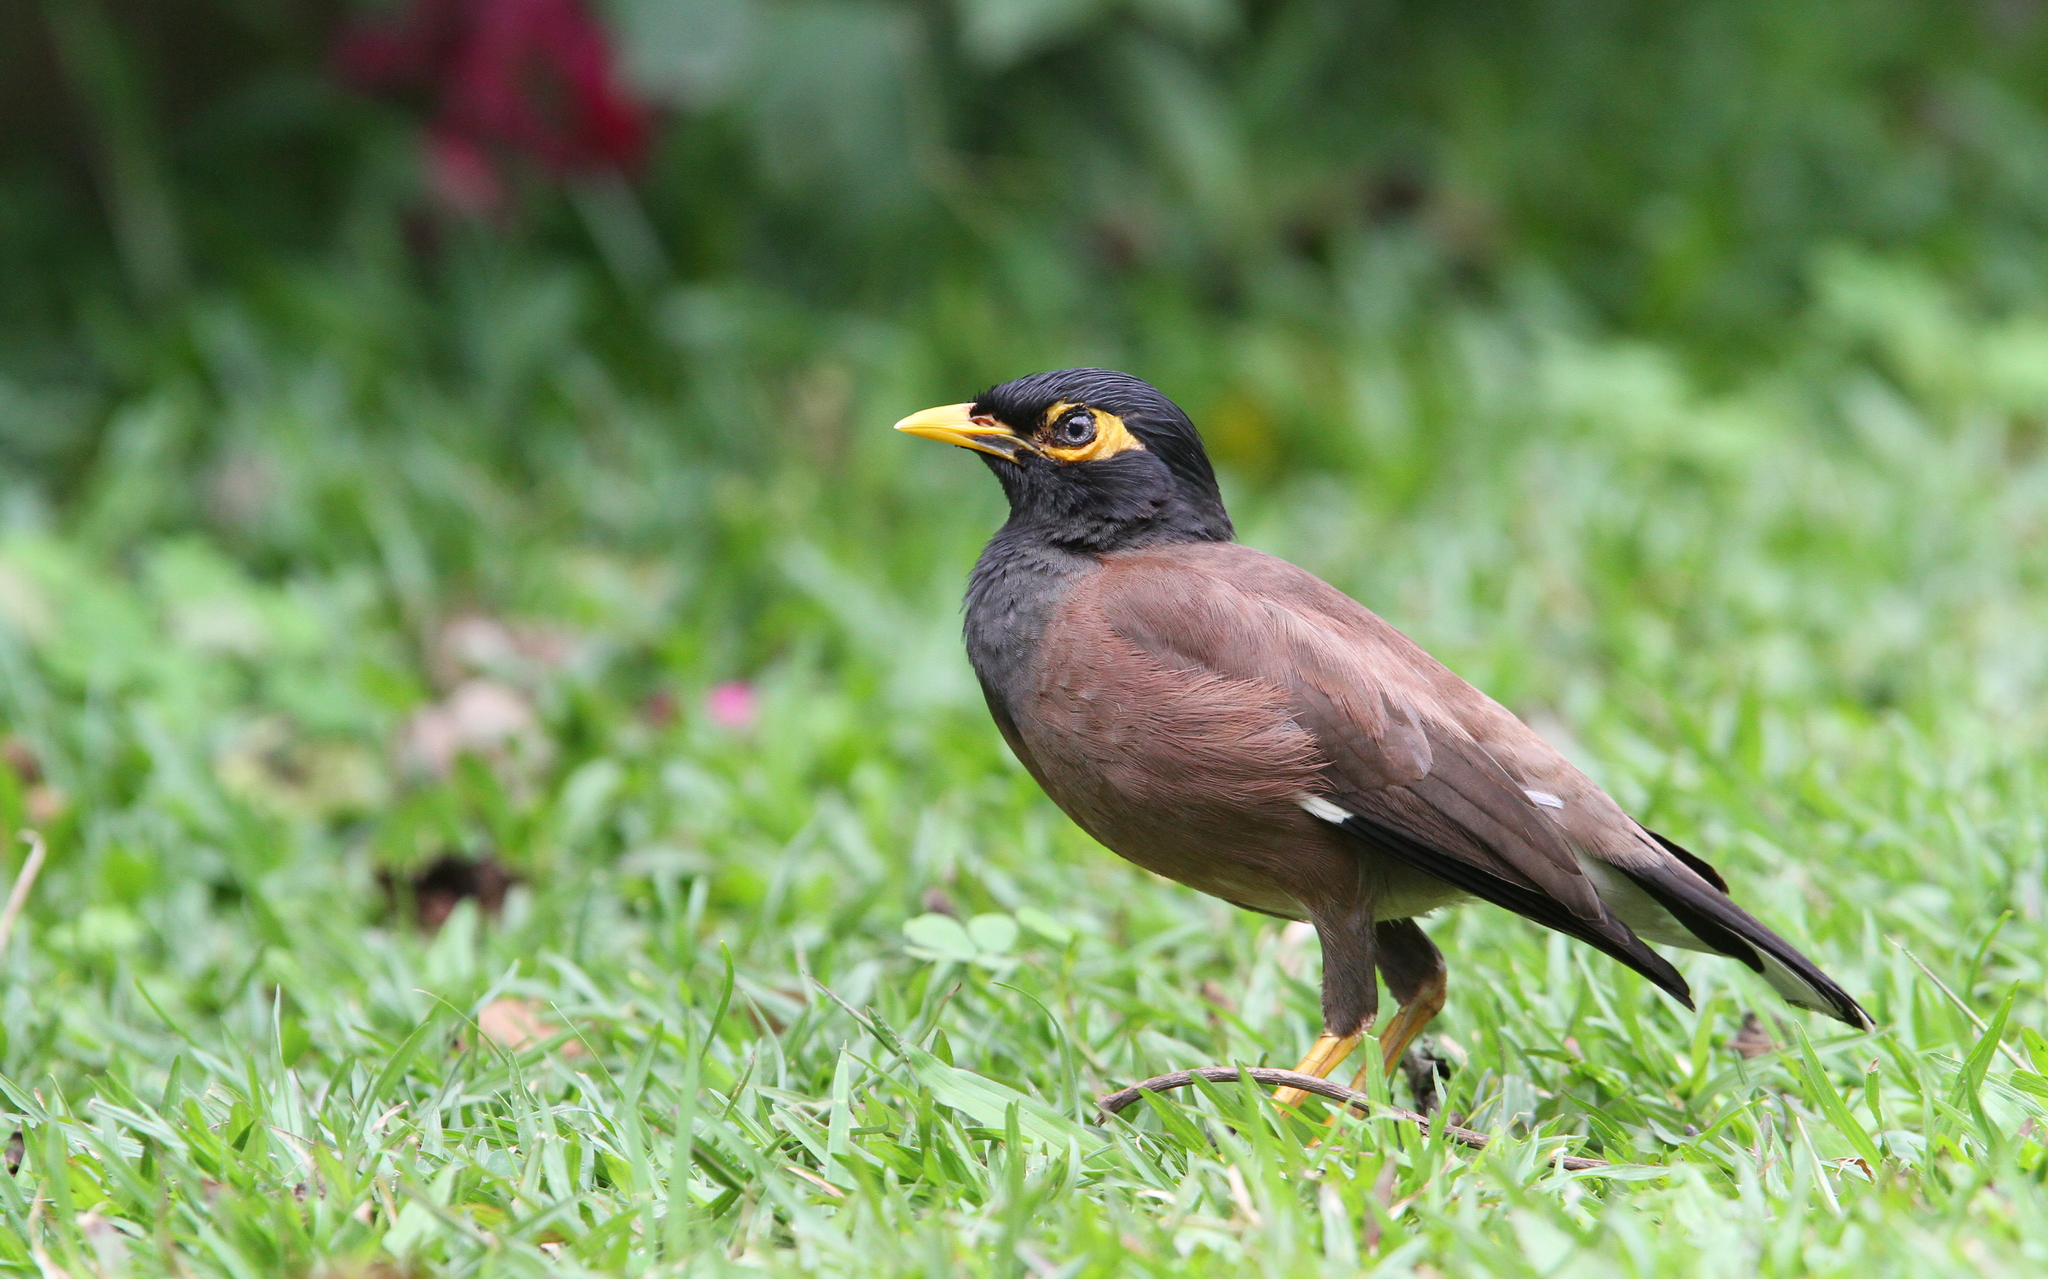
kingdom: Animalia
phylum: Chordata
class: Aves
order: Passeriformes
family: Sturnidae
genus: Acridotheres
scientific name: Acridotheres tristis
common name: Common myna
